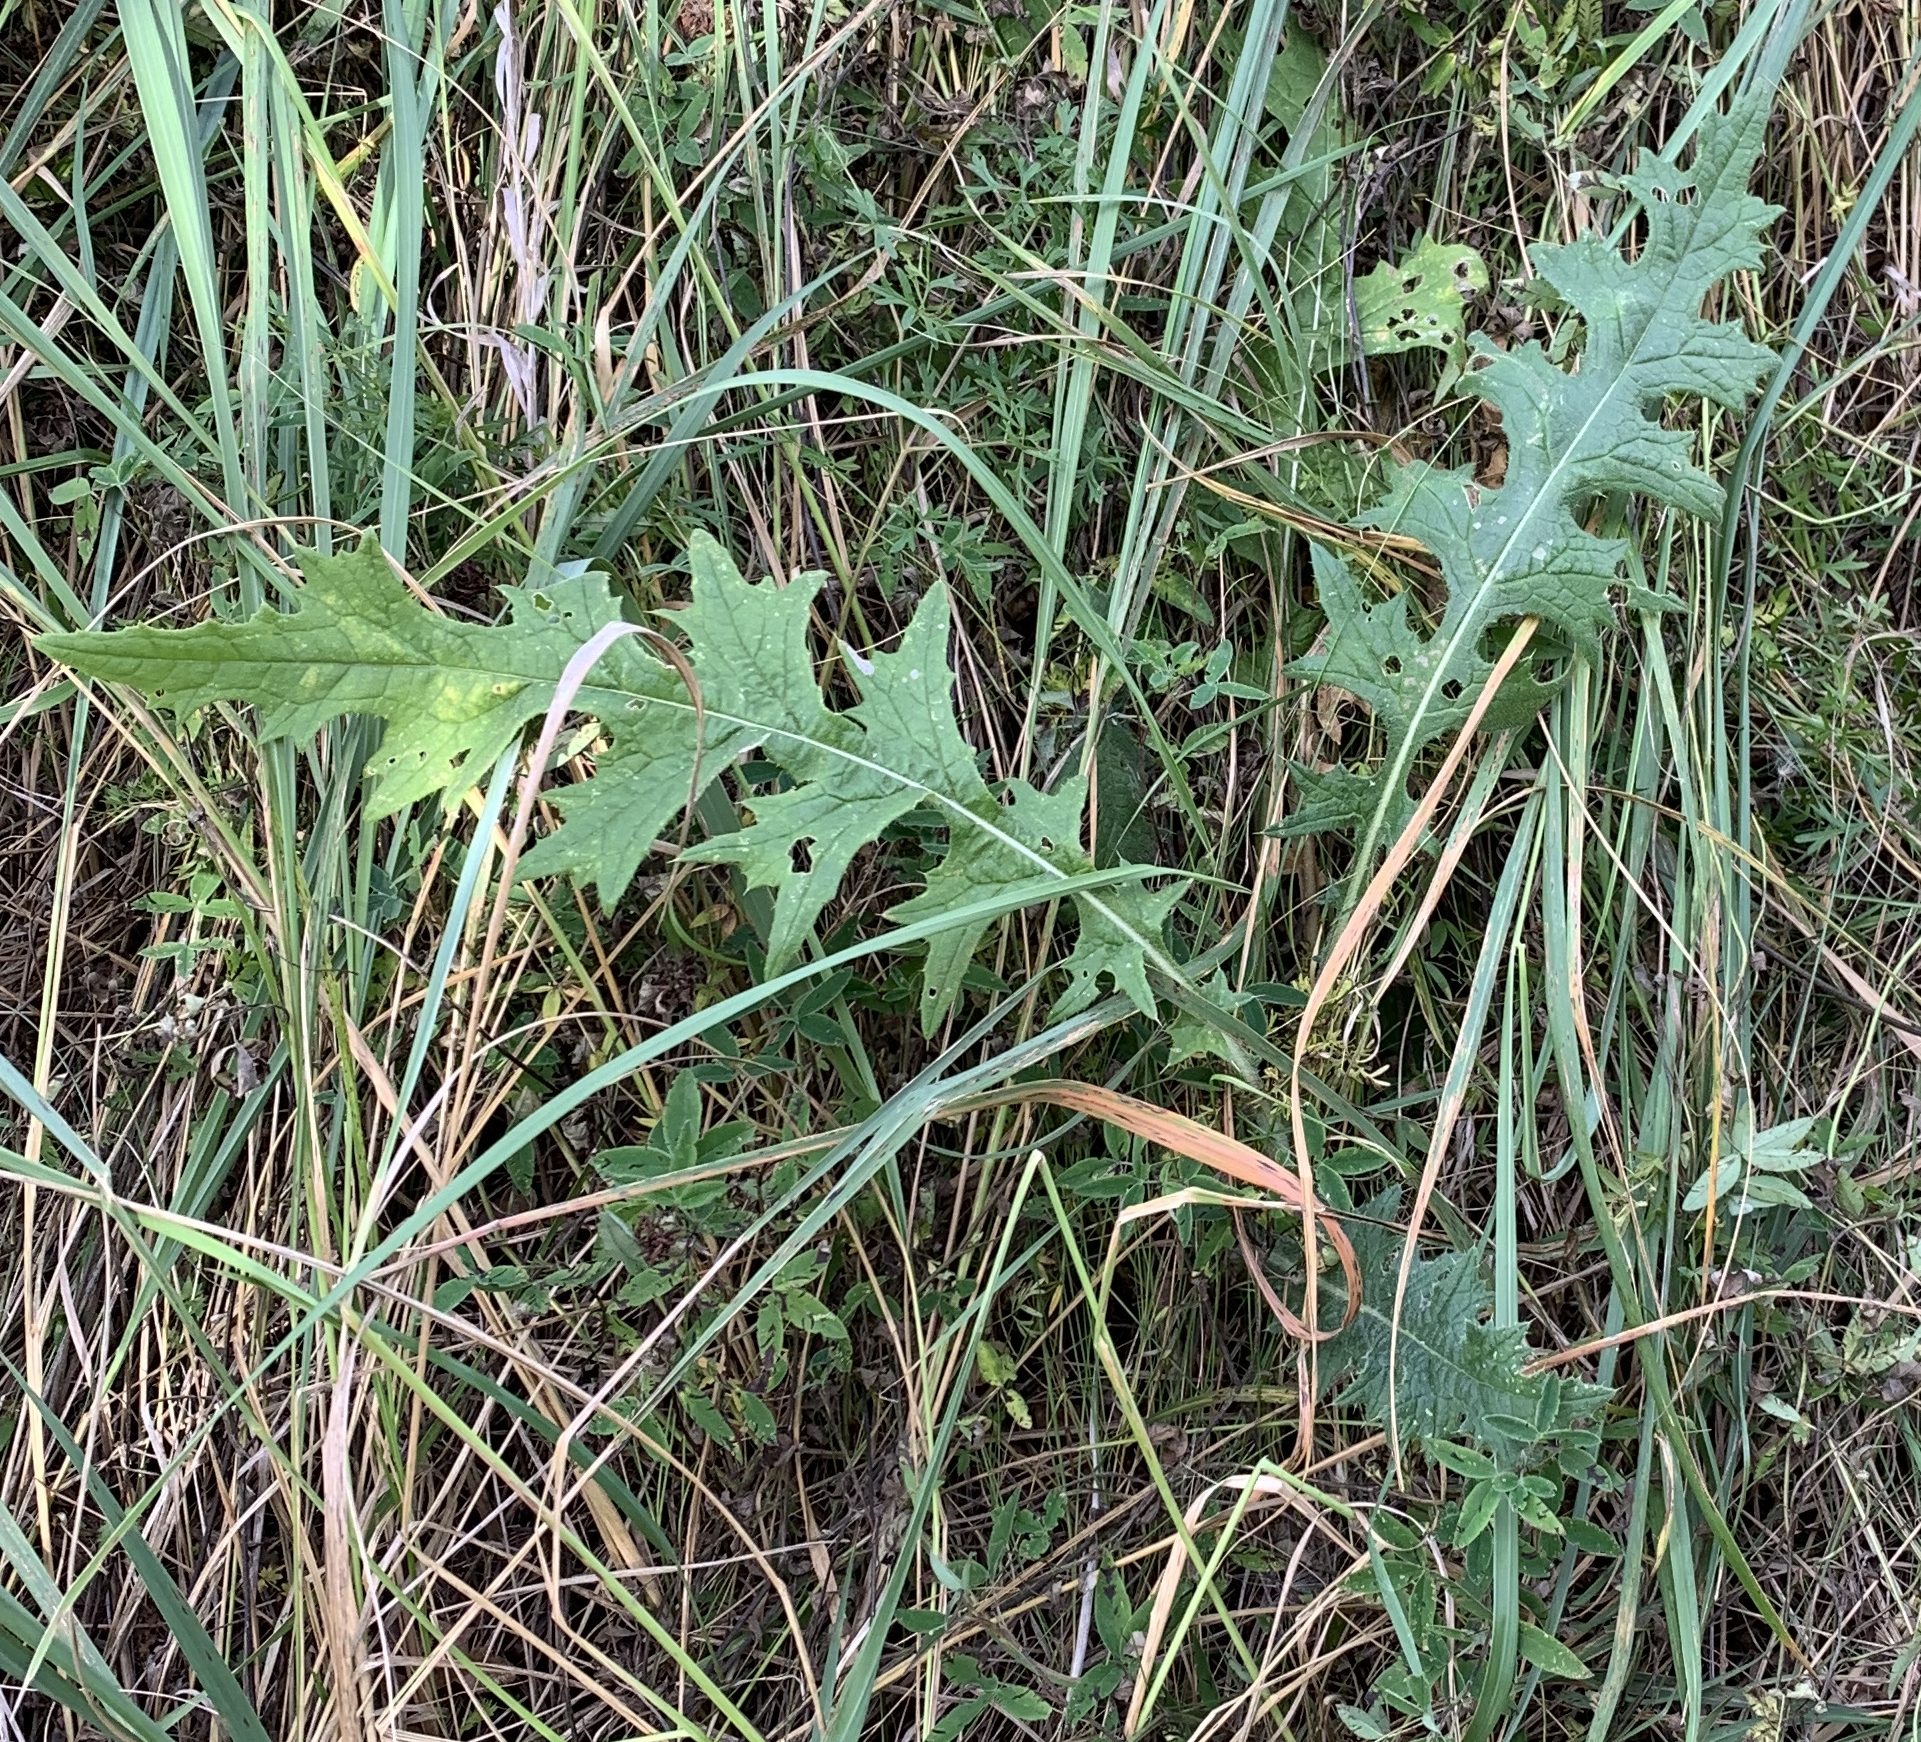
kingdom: Plantae
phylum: Tracheophyta
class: Magnoliopsida
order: Asterales
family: Asteraceae
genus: Cirsium
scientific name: Cirsium vulgare
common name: Bull thistle
